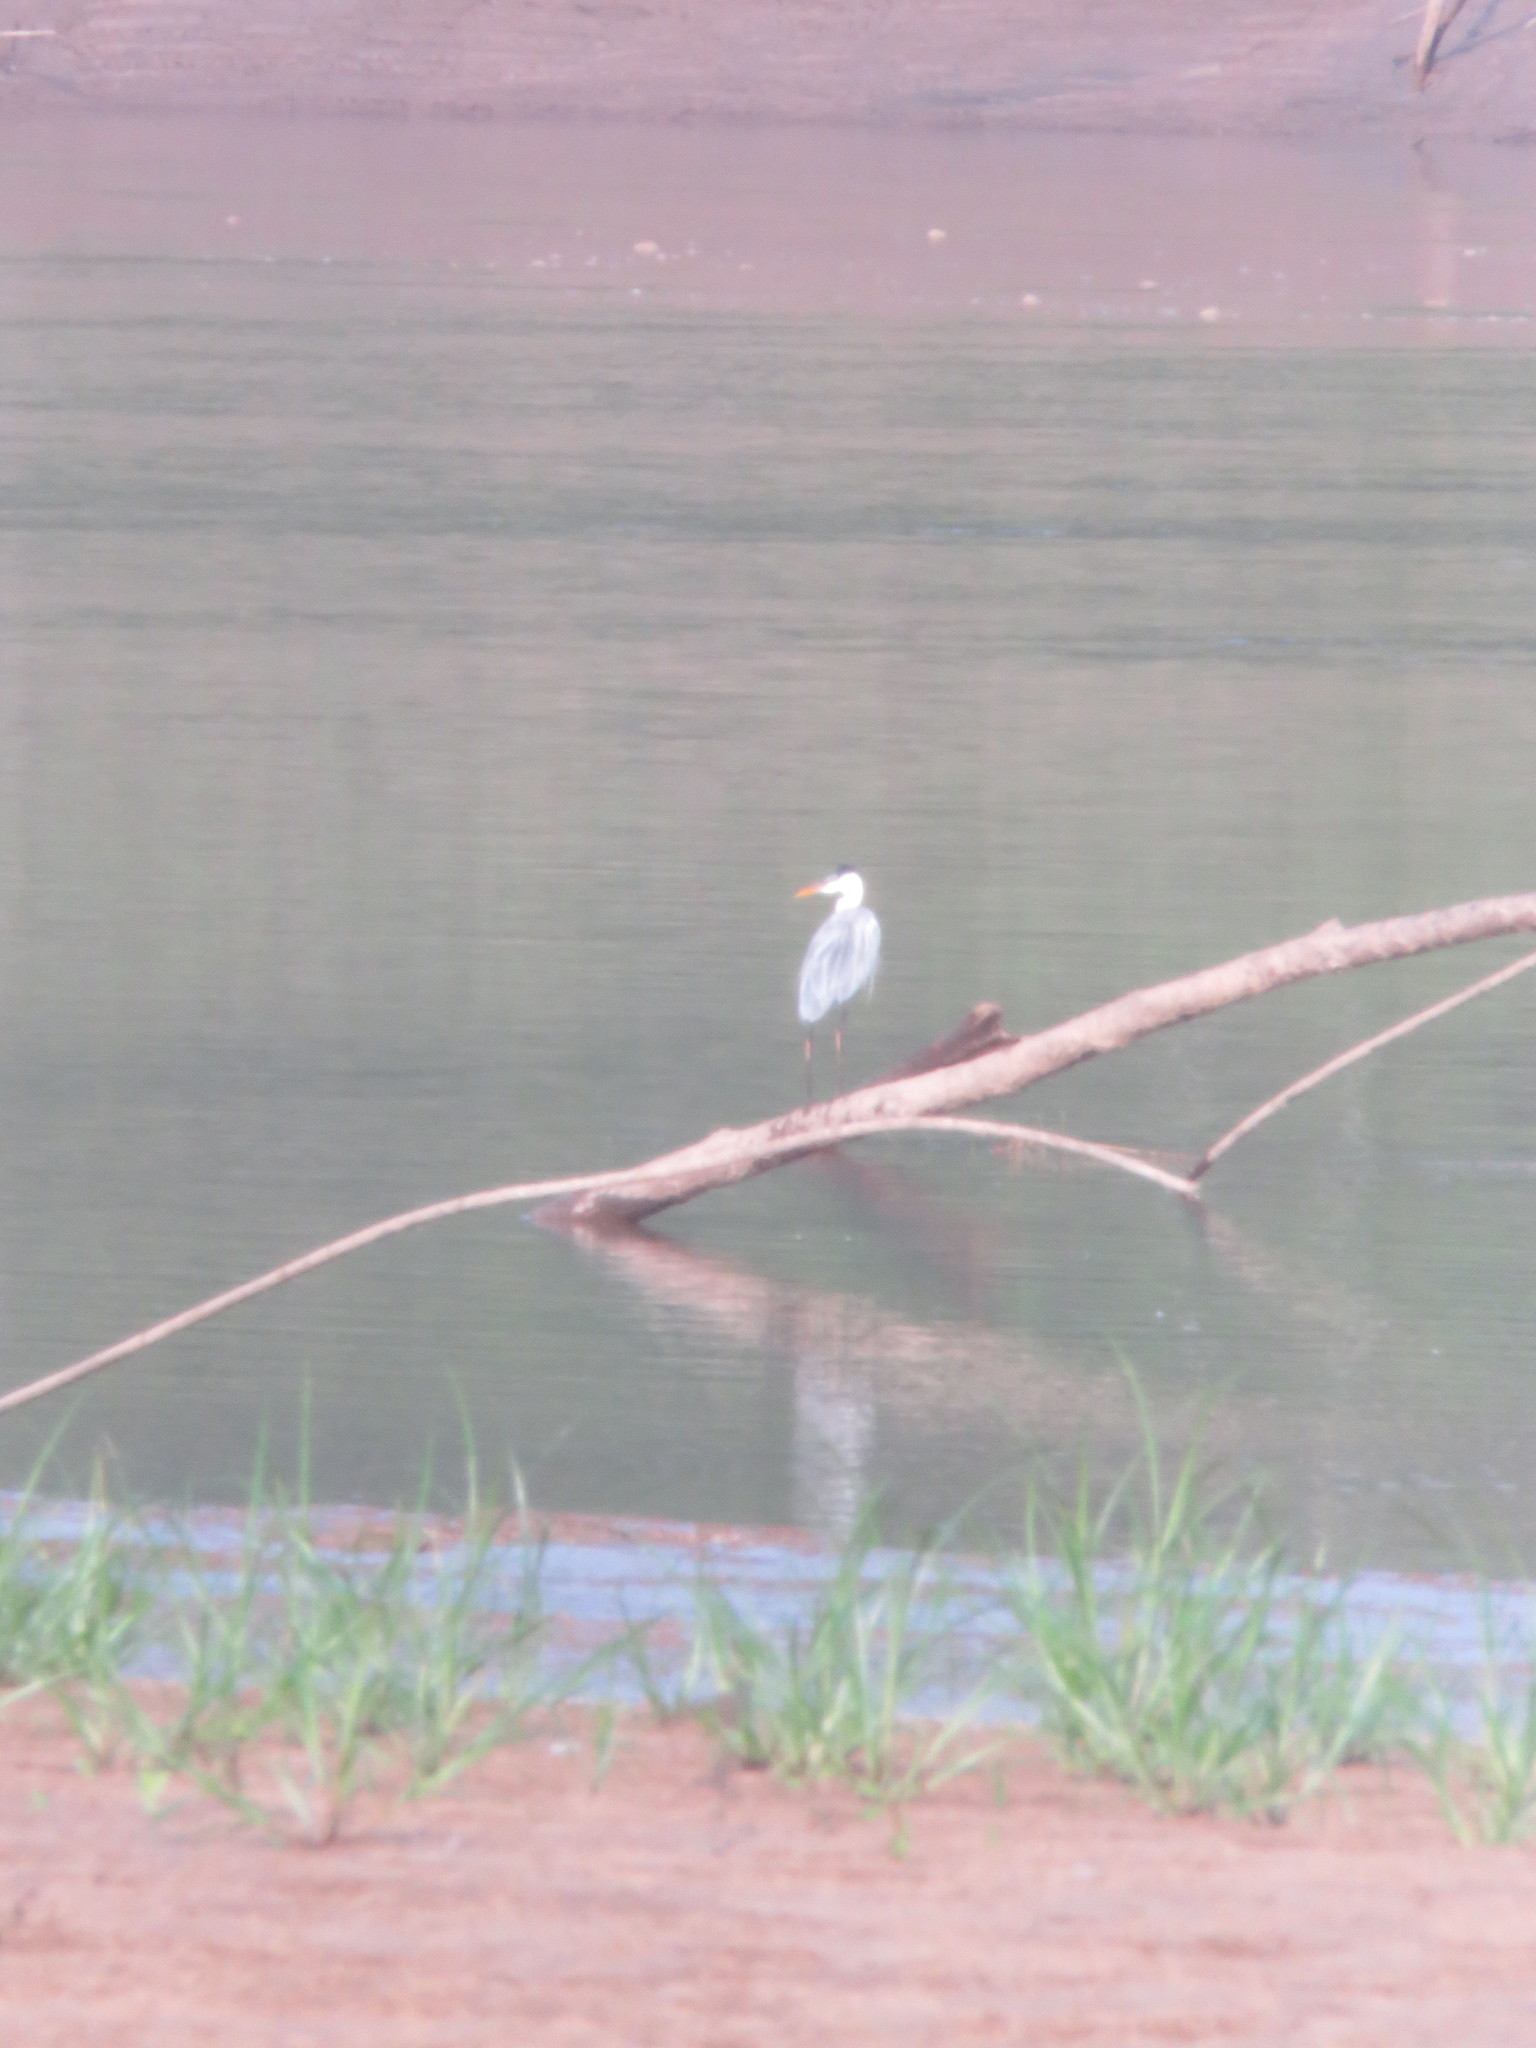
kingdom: Animalia
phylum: Chordata
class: Aves
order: Pelecaniformes
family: Ardeidae
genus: Ardea
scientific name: Ardea cocoi
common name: Cocoi heron
